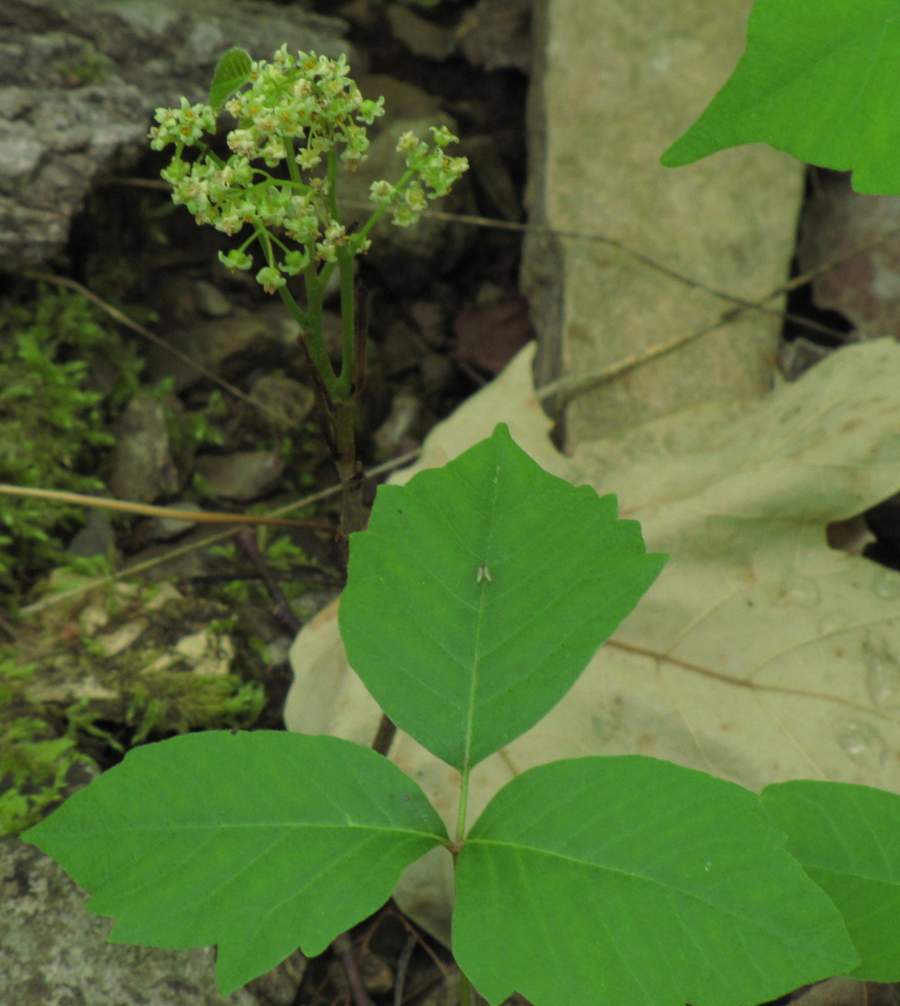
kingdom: Plantae
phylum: Tracheophyta
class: Magnoliopsida
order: Sapindales
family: Anacardiaceae
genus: Toxicodendron
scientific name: Toxicodendron radicans
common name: Poison ivy
